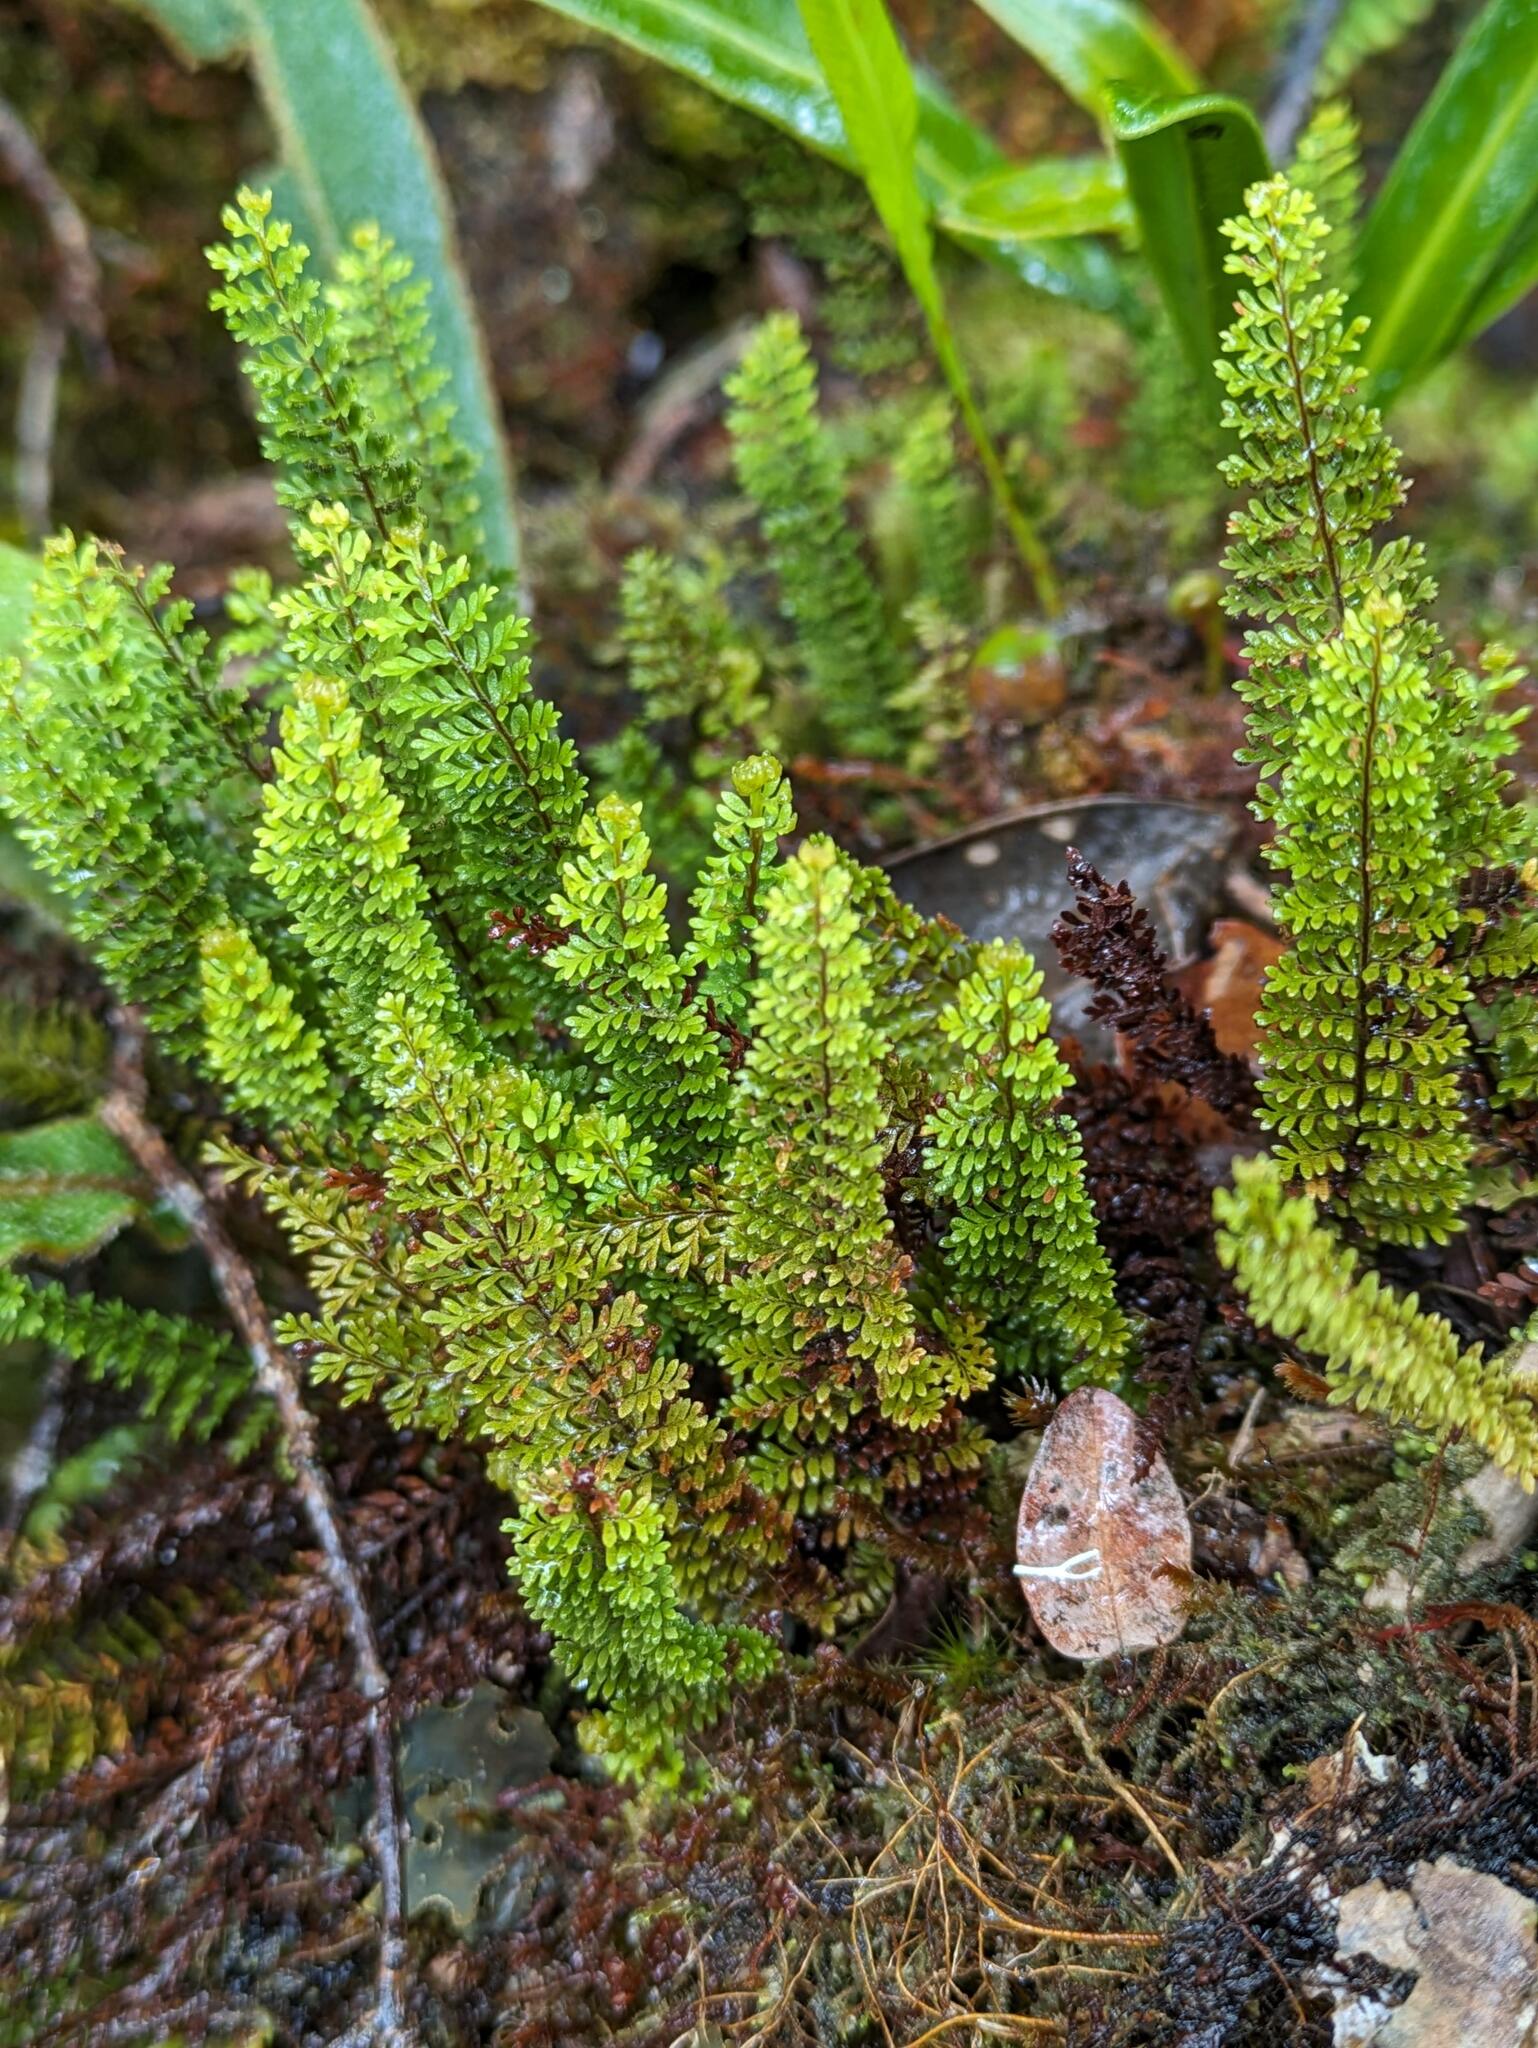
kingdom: Plantae
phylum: Tracheophyta
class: Polypodiopsida
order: Polypodiales
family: Polypodiaceae
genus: Adenophorus
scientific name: Adenophorus epigaeus
